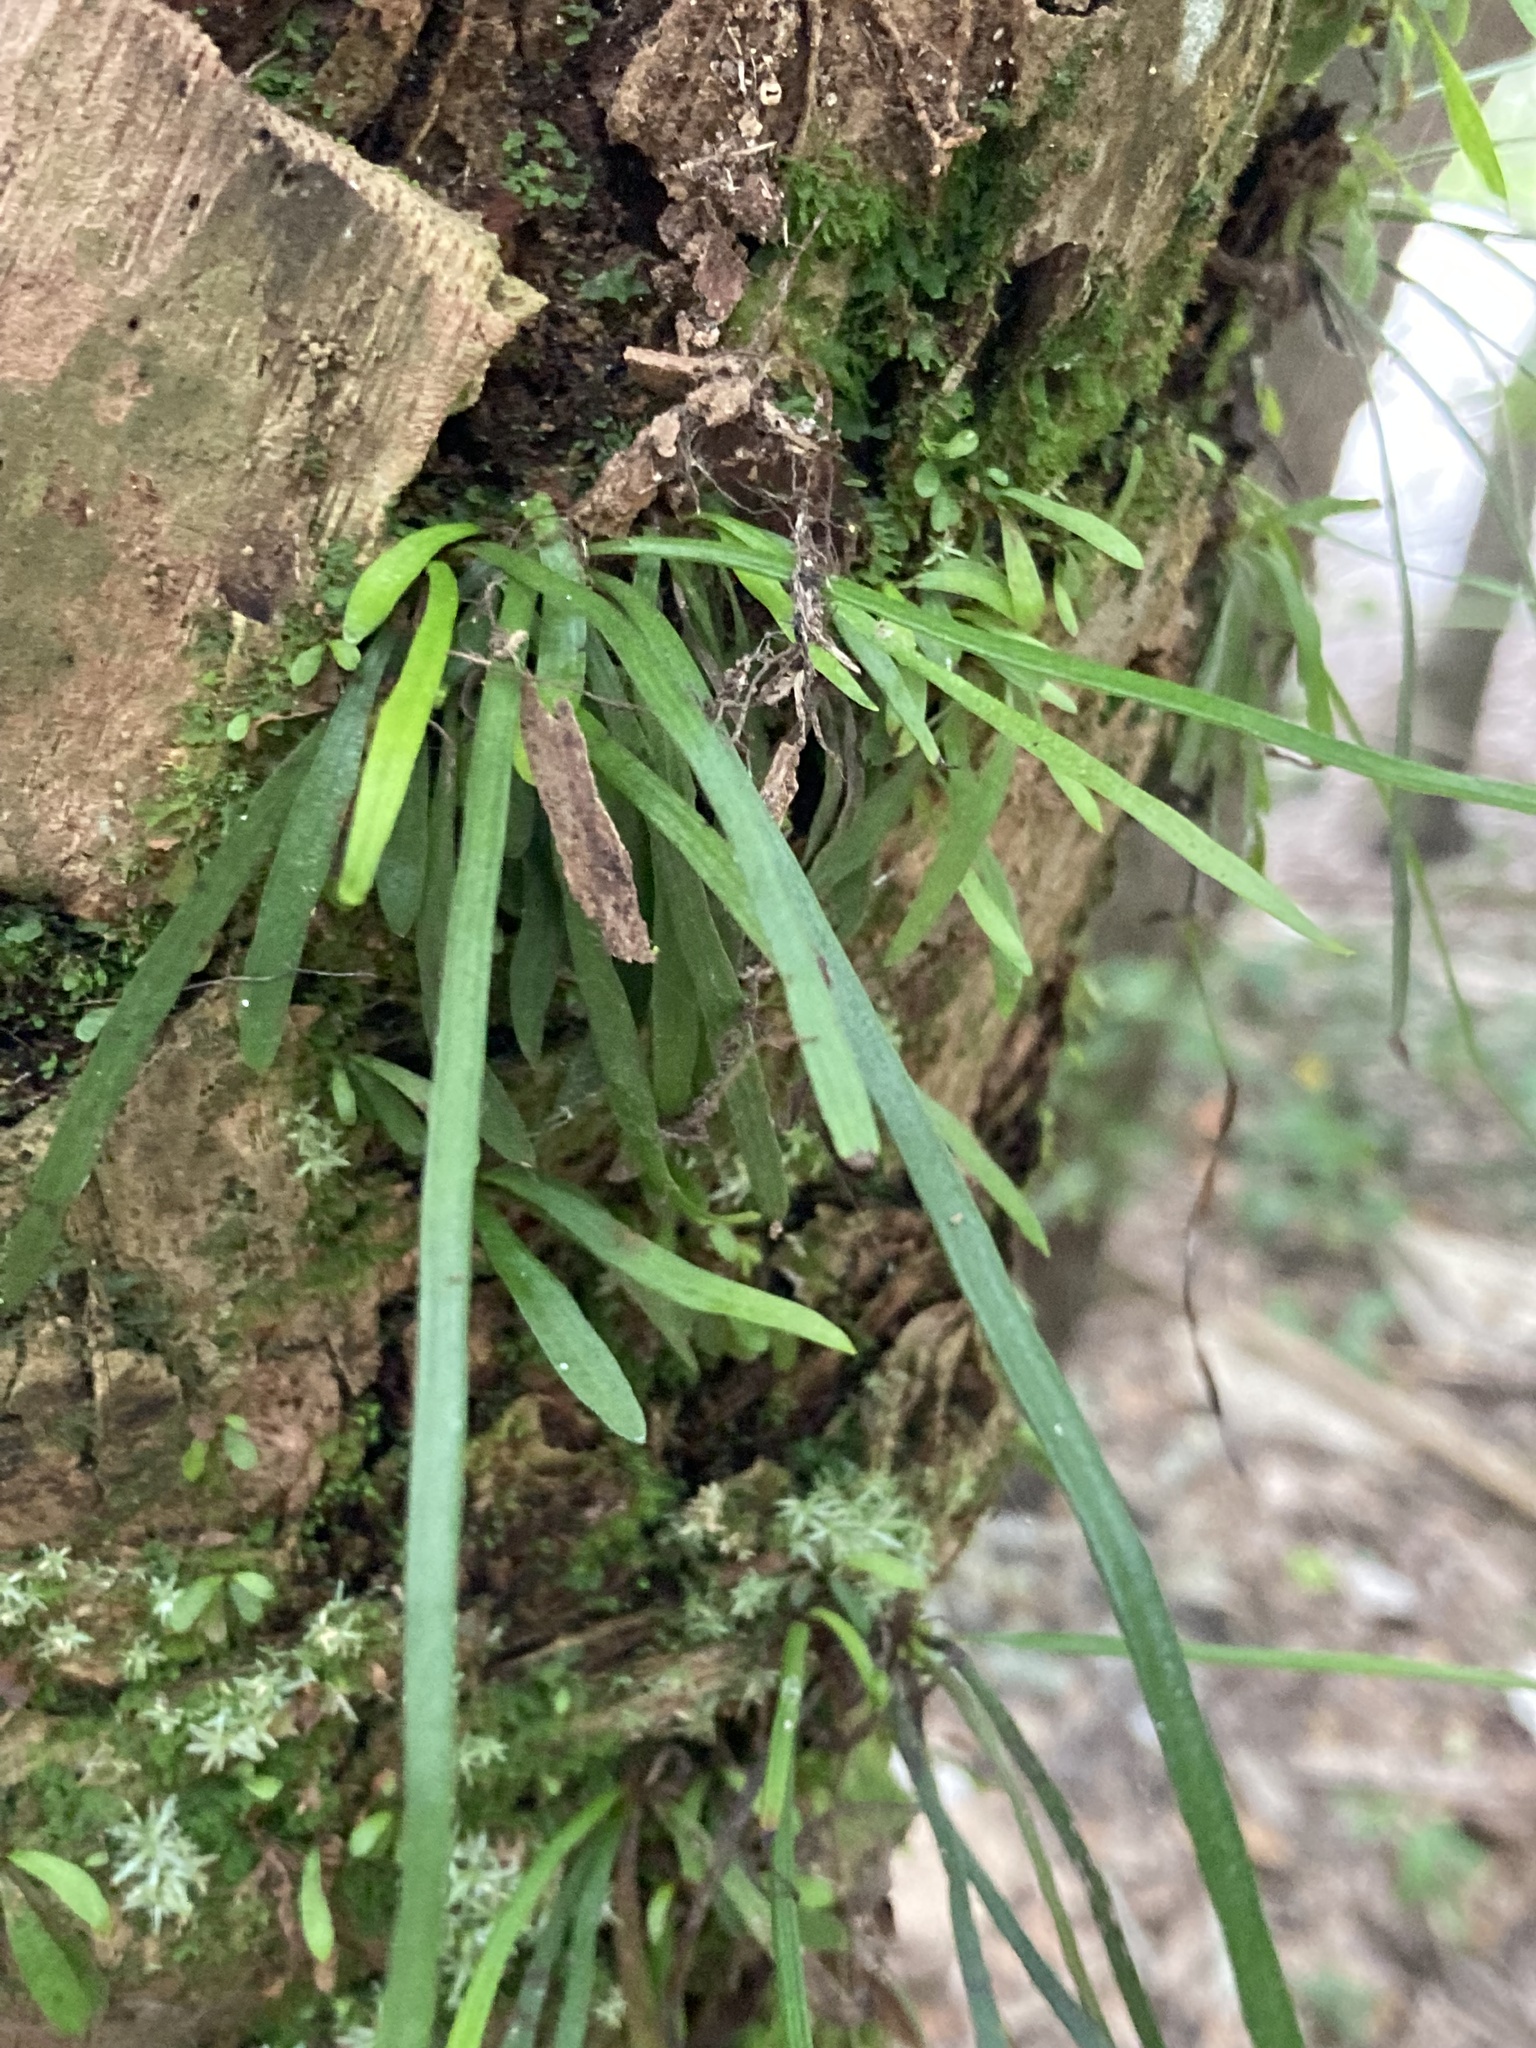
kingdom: Plantae
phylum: Tracheophyta
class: Polypodiopsida
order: Polypodiales
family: Pteridaceae
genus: Vittaria
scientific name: Vittaria lineata
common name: Shoestring fern
